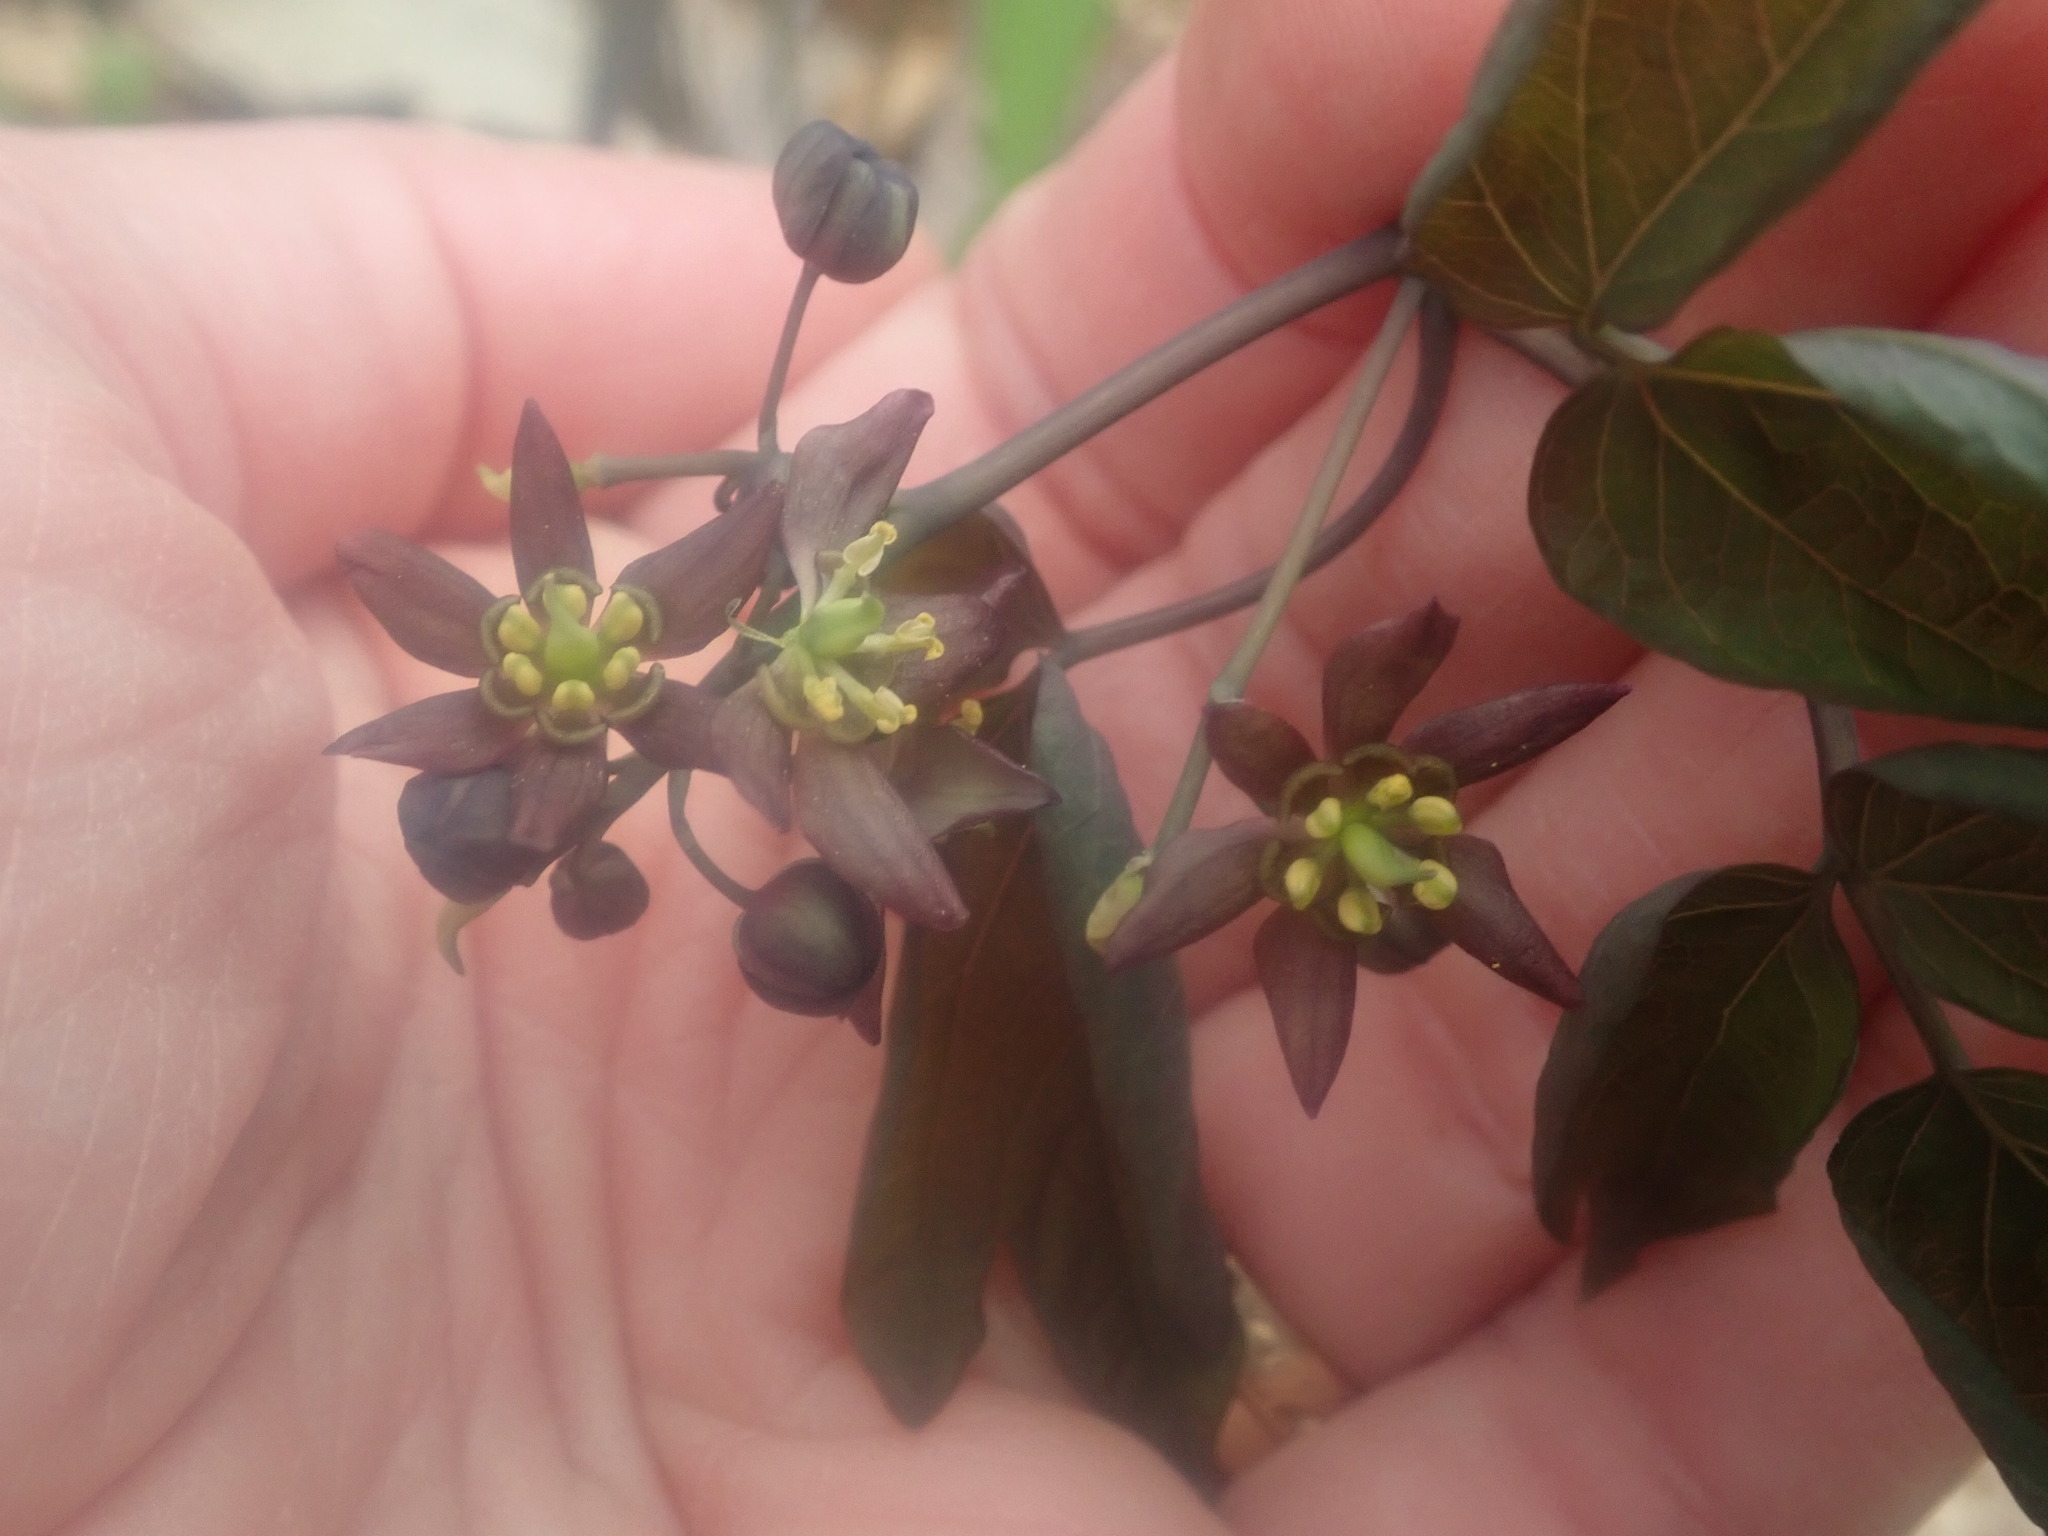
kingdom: Plantae
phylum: Tracheophyta
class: Magnoliopsida
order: Ranunculales
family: Berberidaceae
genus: Caulophyllum
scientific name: Caulophyllum giganteum
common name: Blue cohosh
